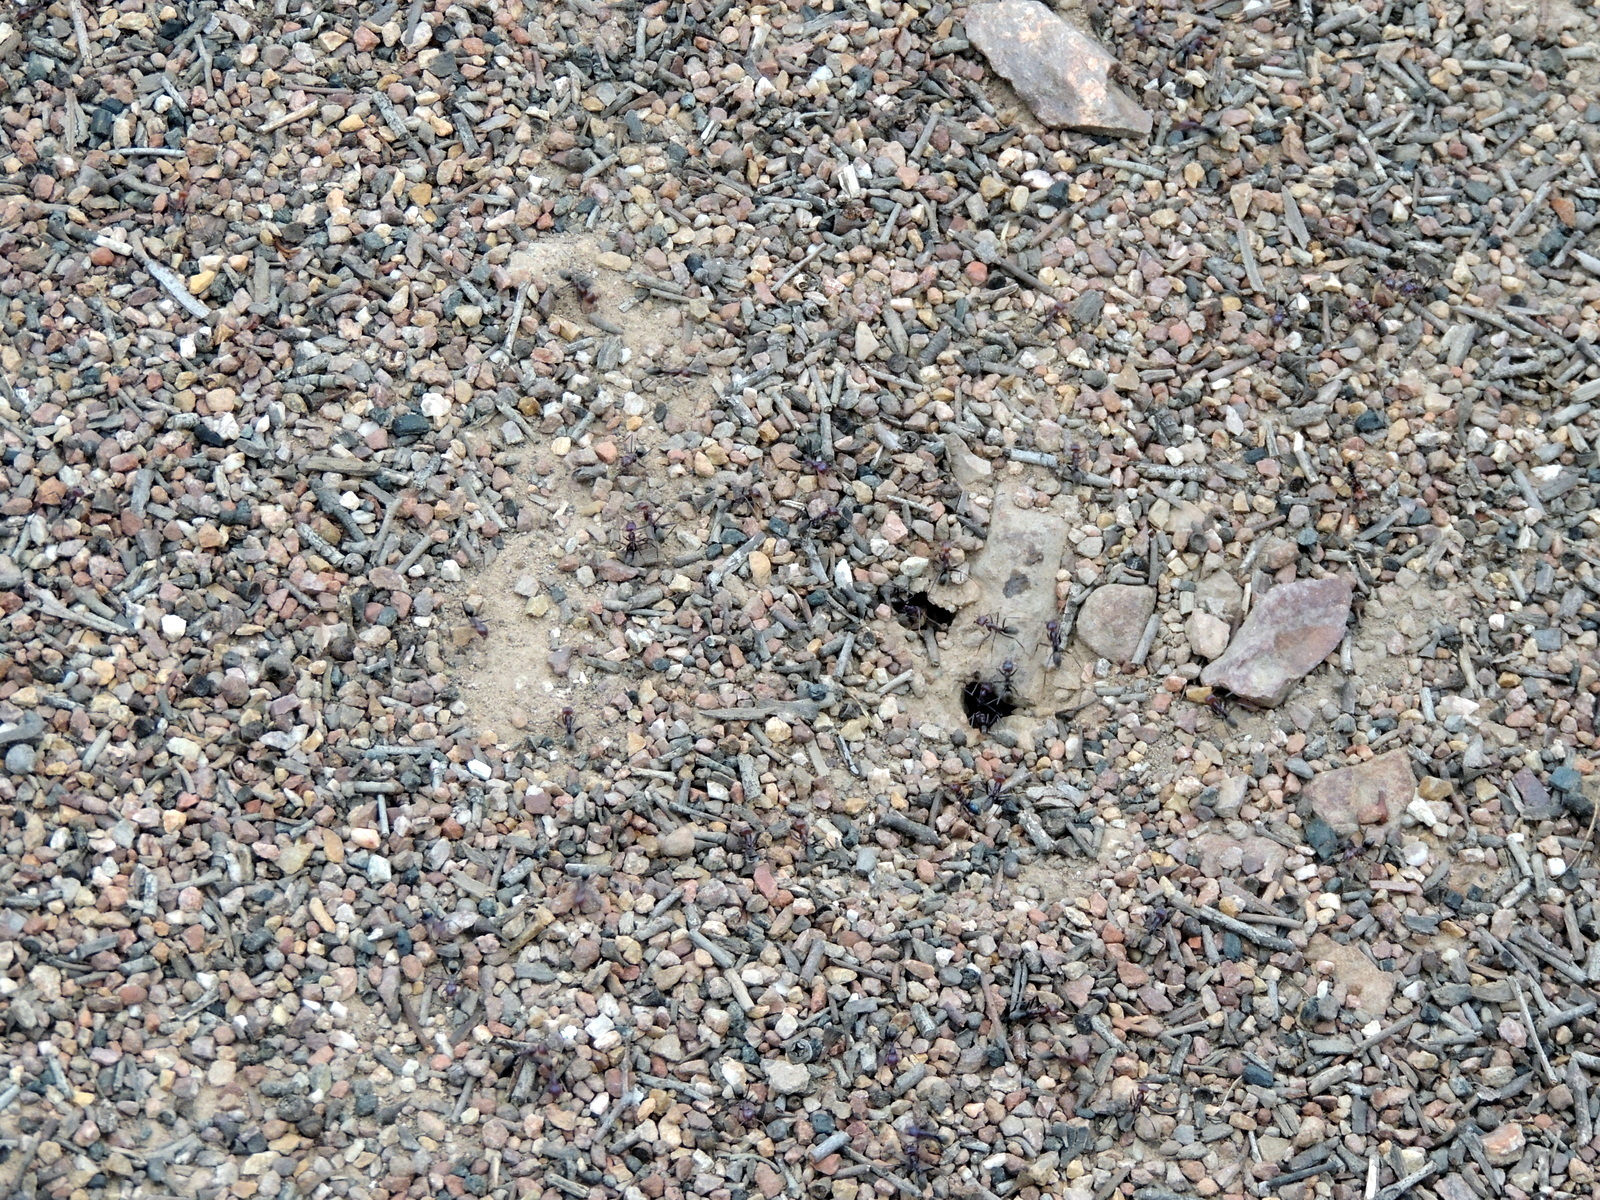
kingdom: Animalia
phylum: Arthropoda
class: Insecta
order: Hymenoptera
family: Formicidae
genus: Iridomyrmex
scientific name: Iridomyrmex purpureus
